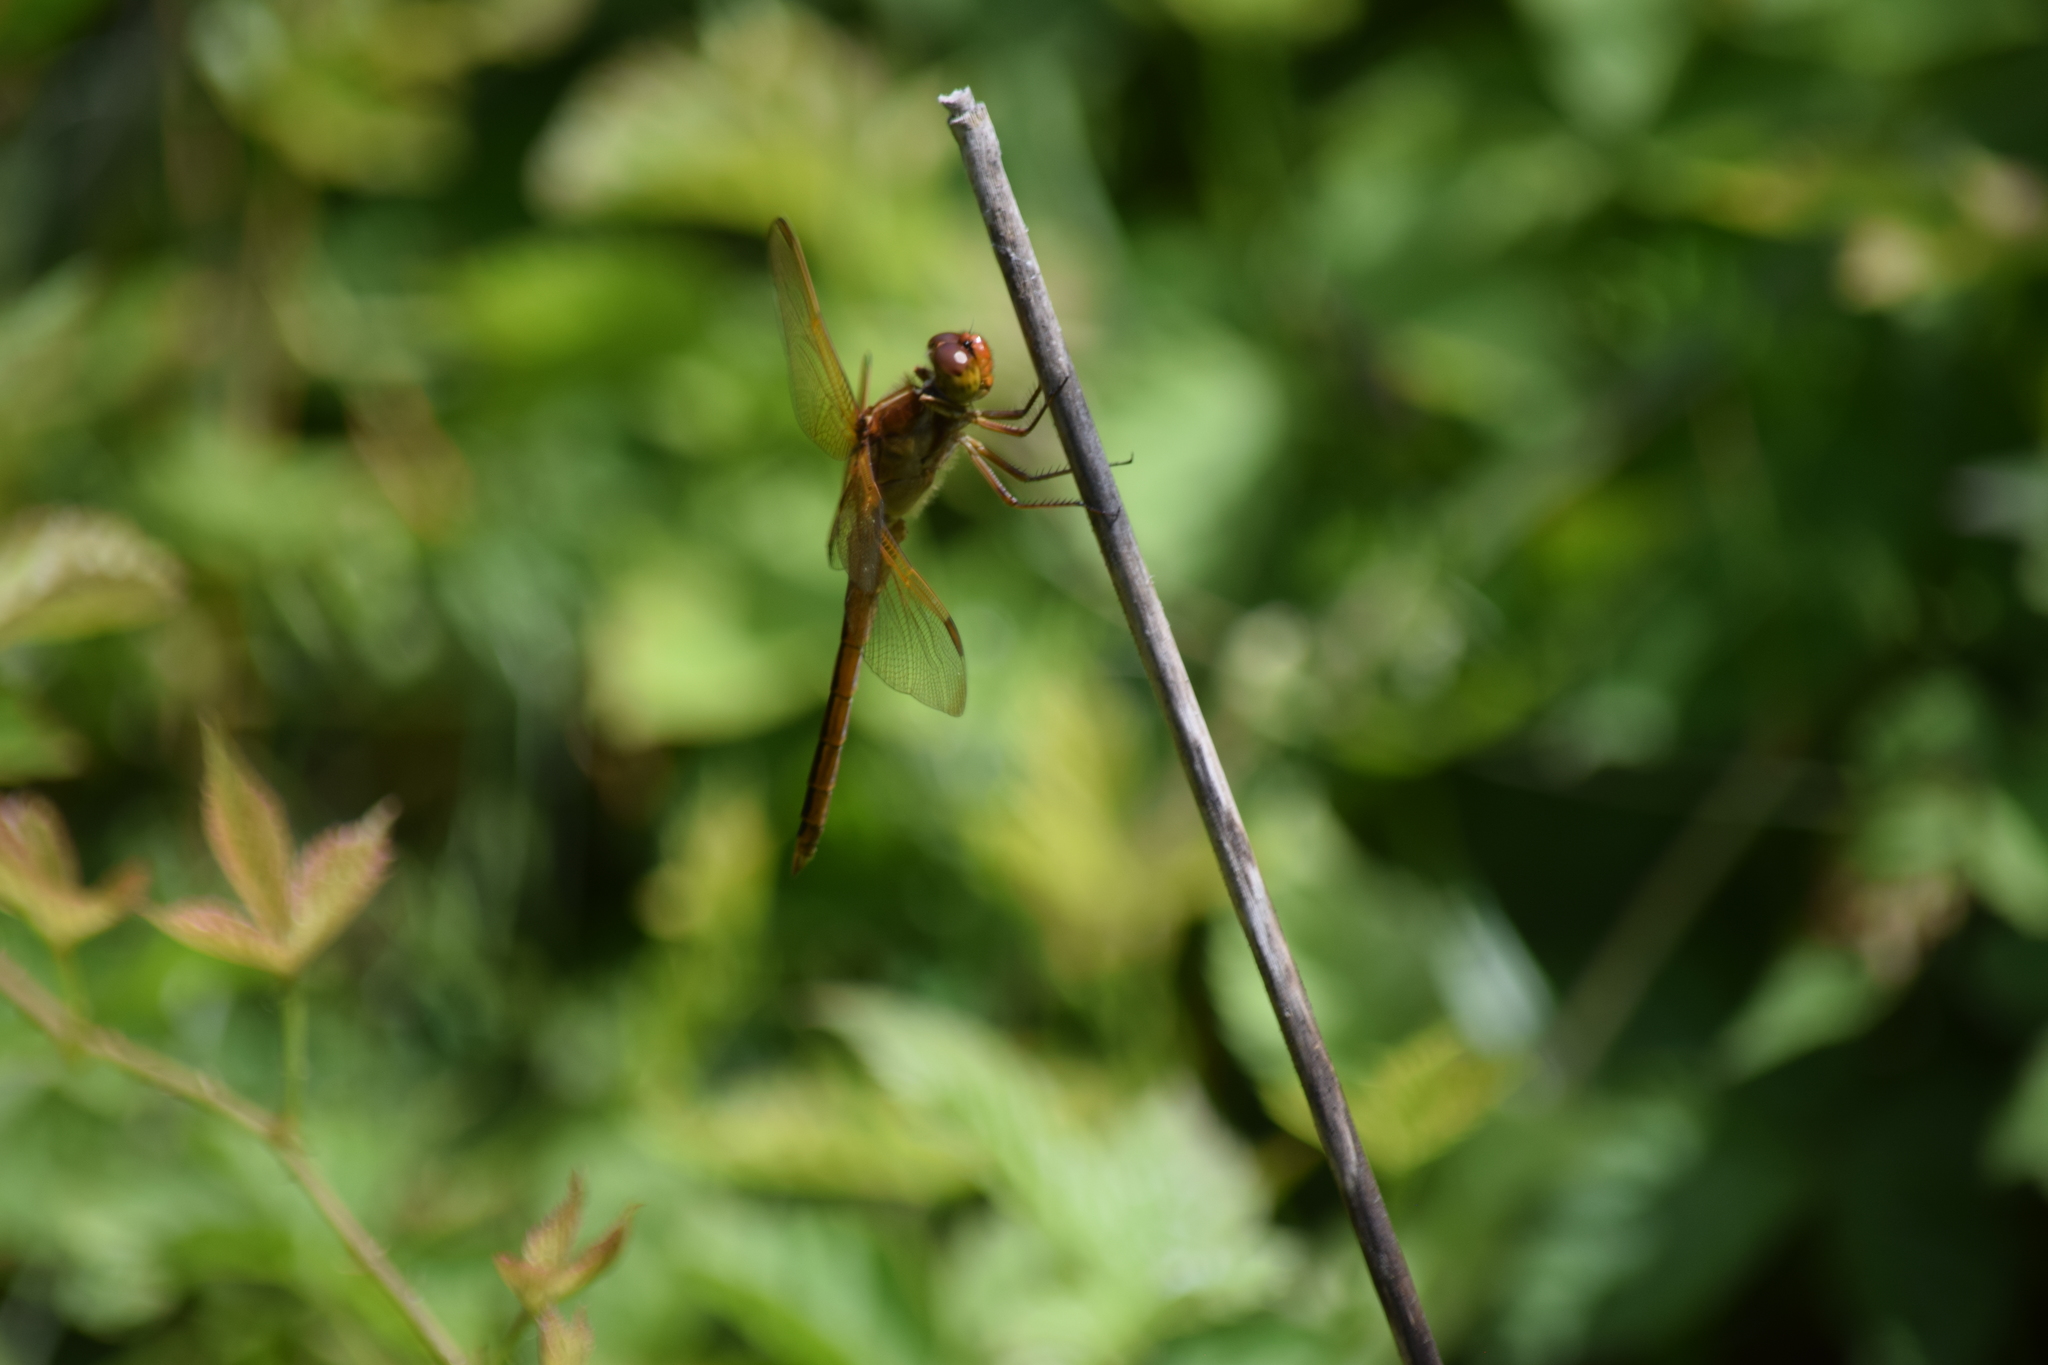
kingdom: Animalia
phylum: Arthropoda
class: Insecta
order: Odonata
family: Libellulidae
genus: Libellula
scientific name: Libellula needhami
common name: Needham's skimmer
